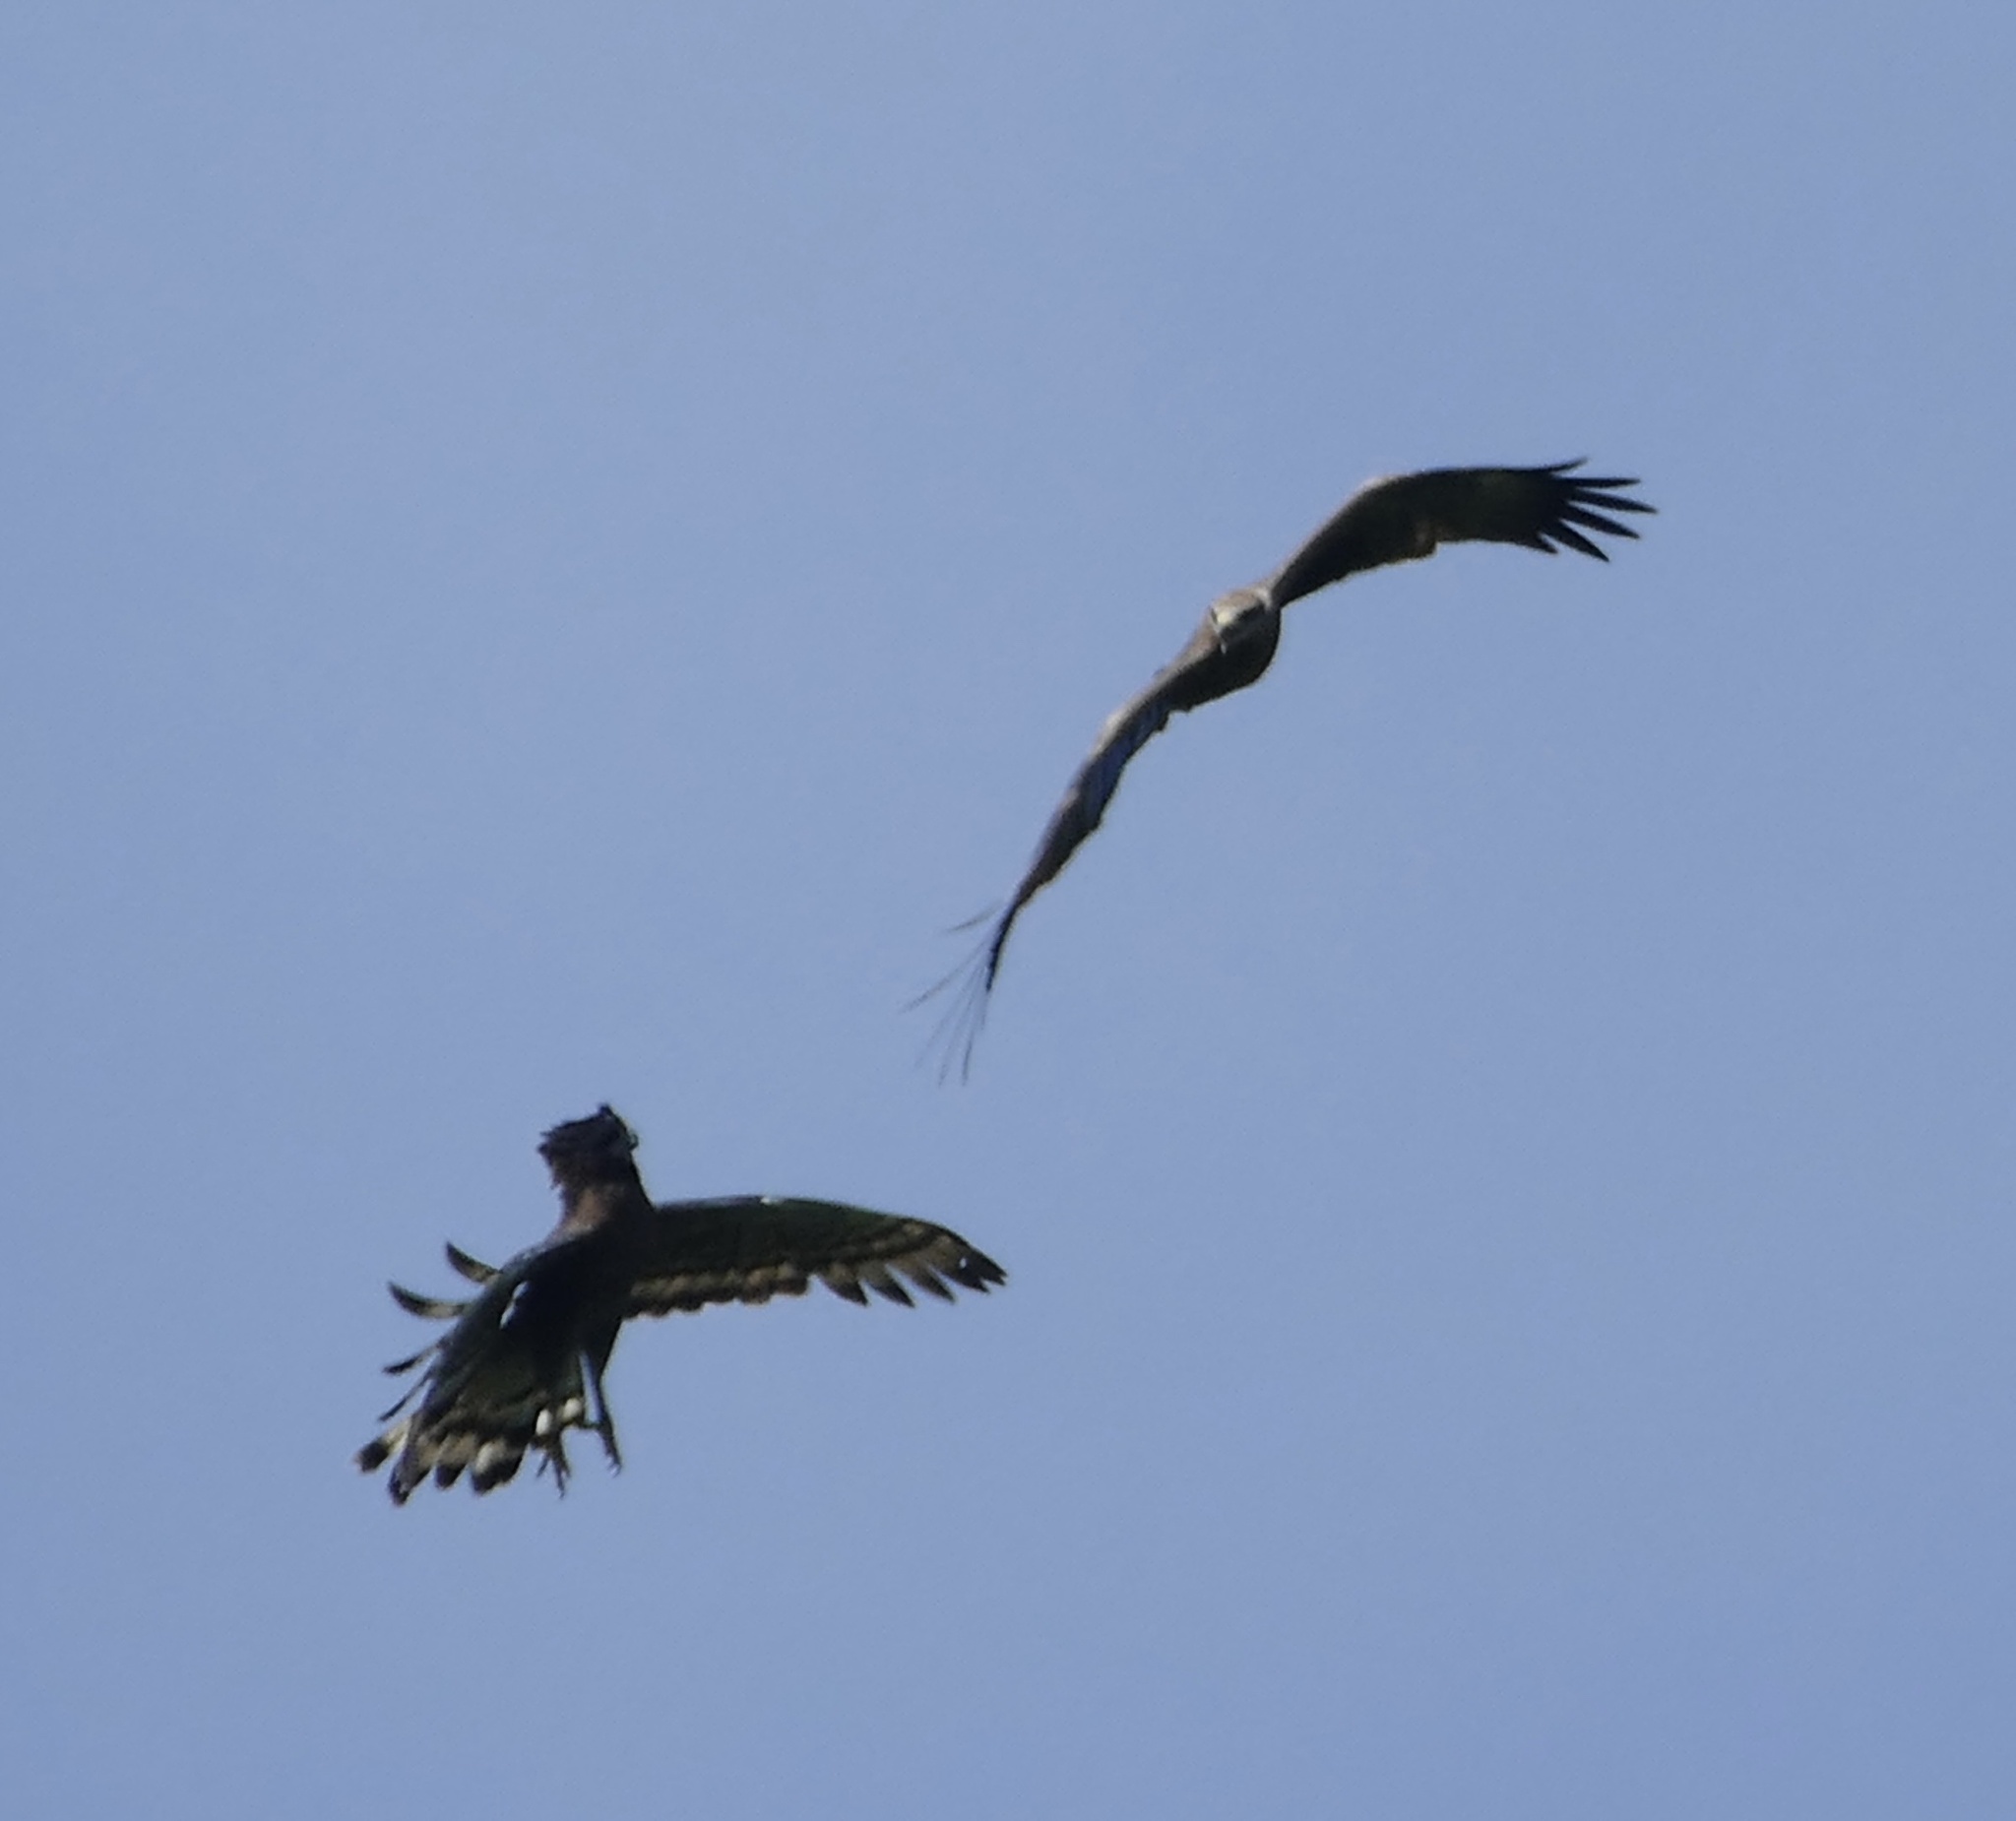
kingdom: Animalia
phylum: Chordata
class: Aves
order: Accipitriformes
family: Accipitridae
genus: Spilornis
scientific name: Spilornis rufipectus
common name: Sulawesi serpent eagle
